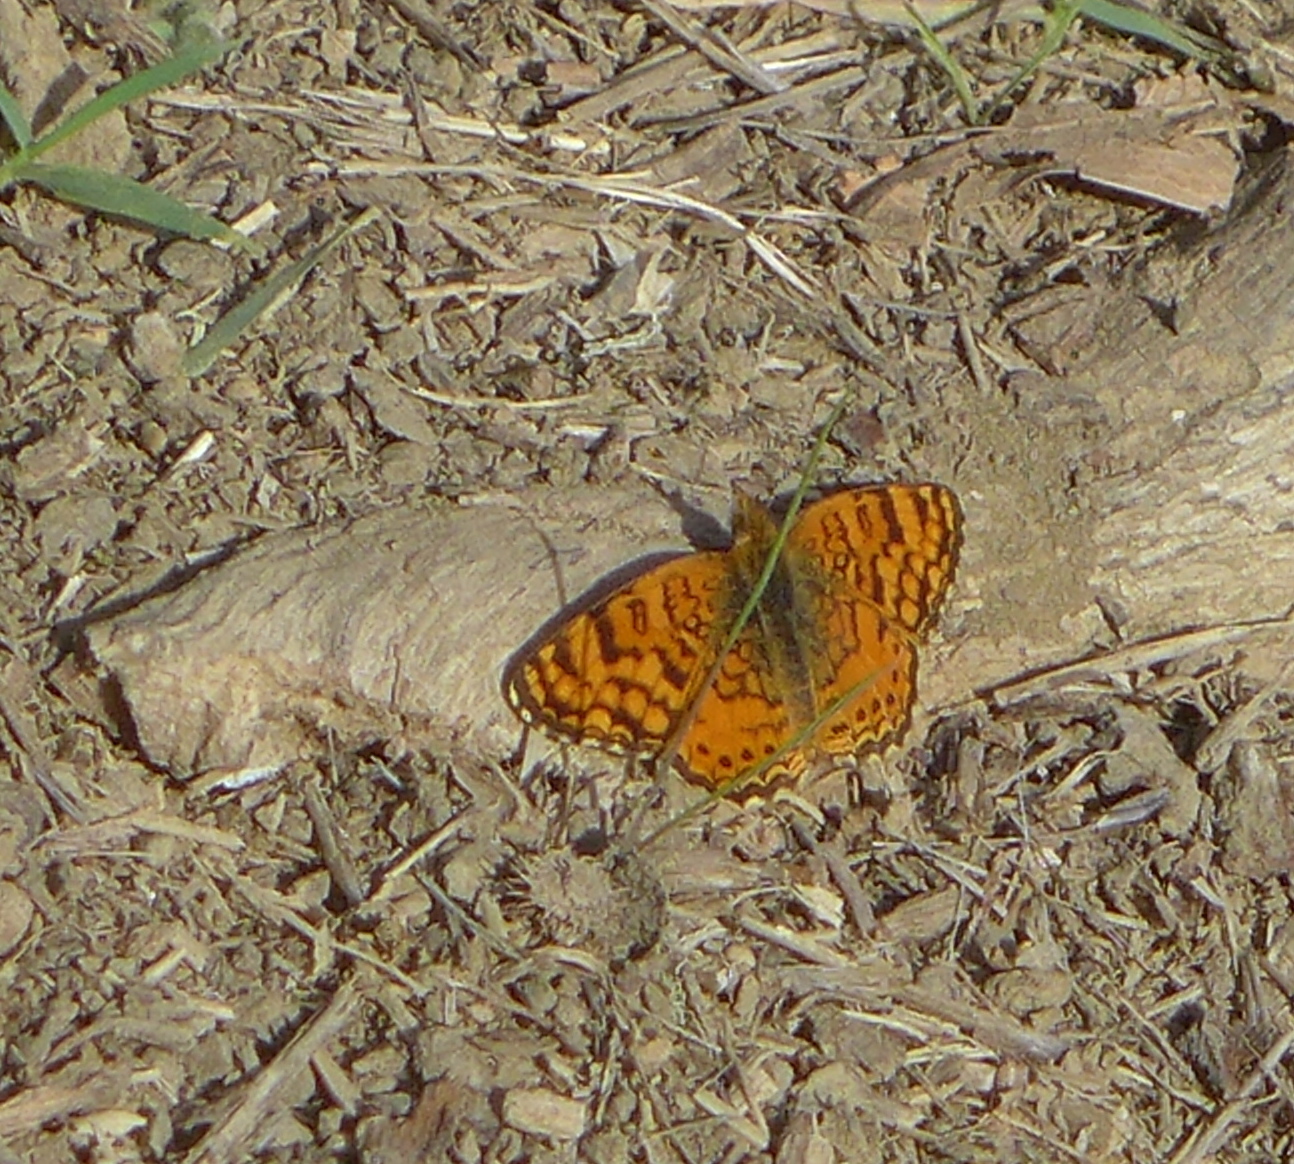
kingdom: Animalia
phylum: Arthropoda
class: Insecta
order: Lepidoptera
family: Nymphalidae
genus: Eresia
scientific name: Eresia aveyrona
